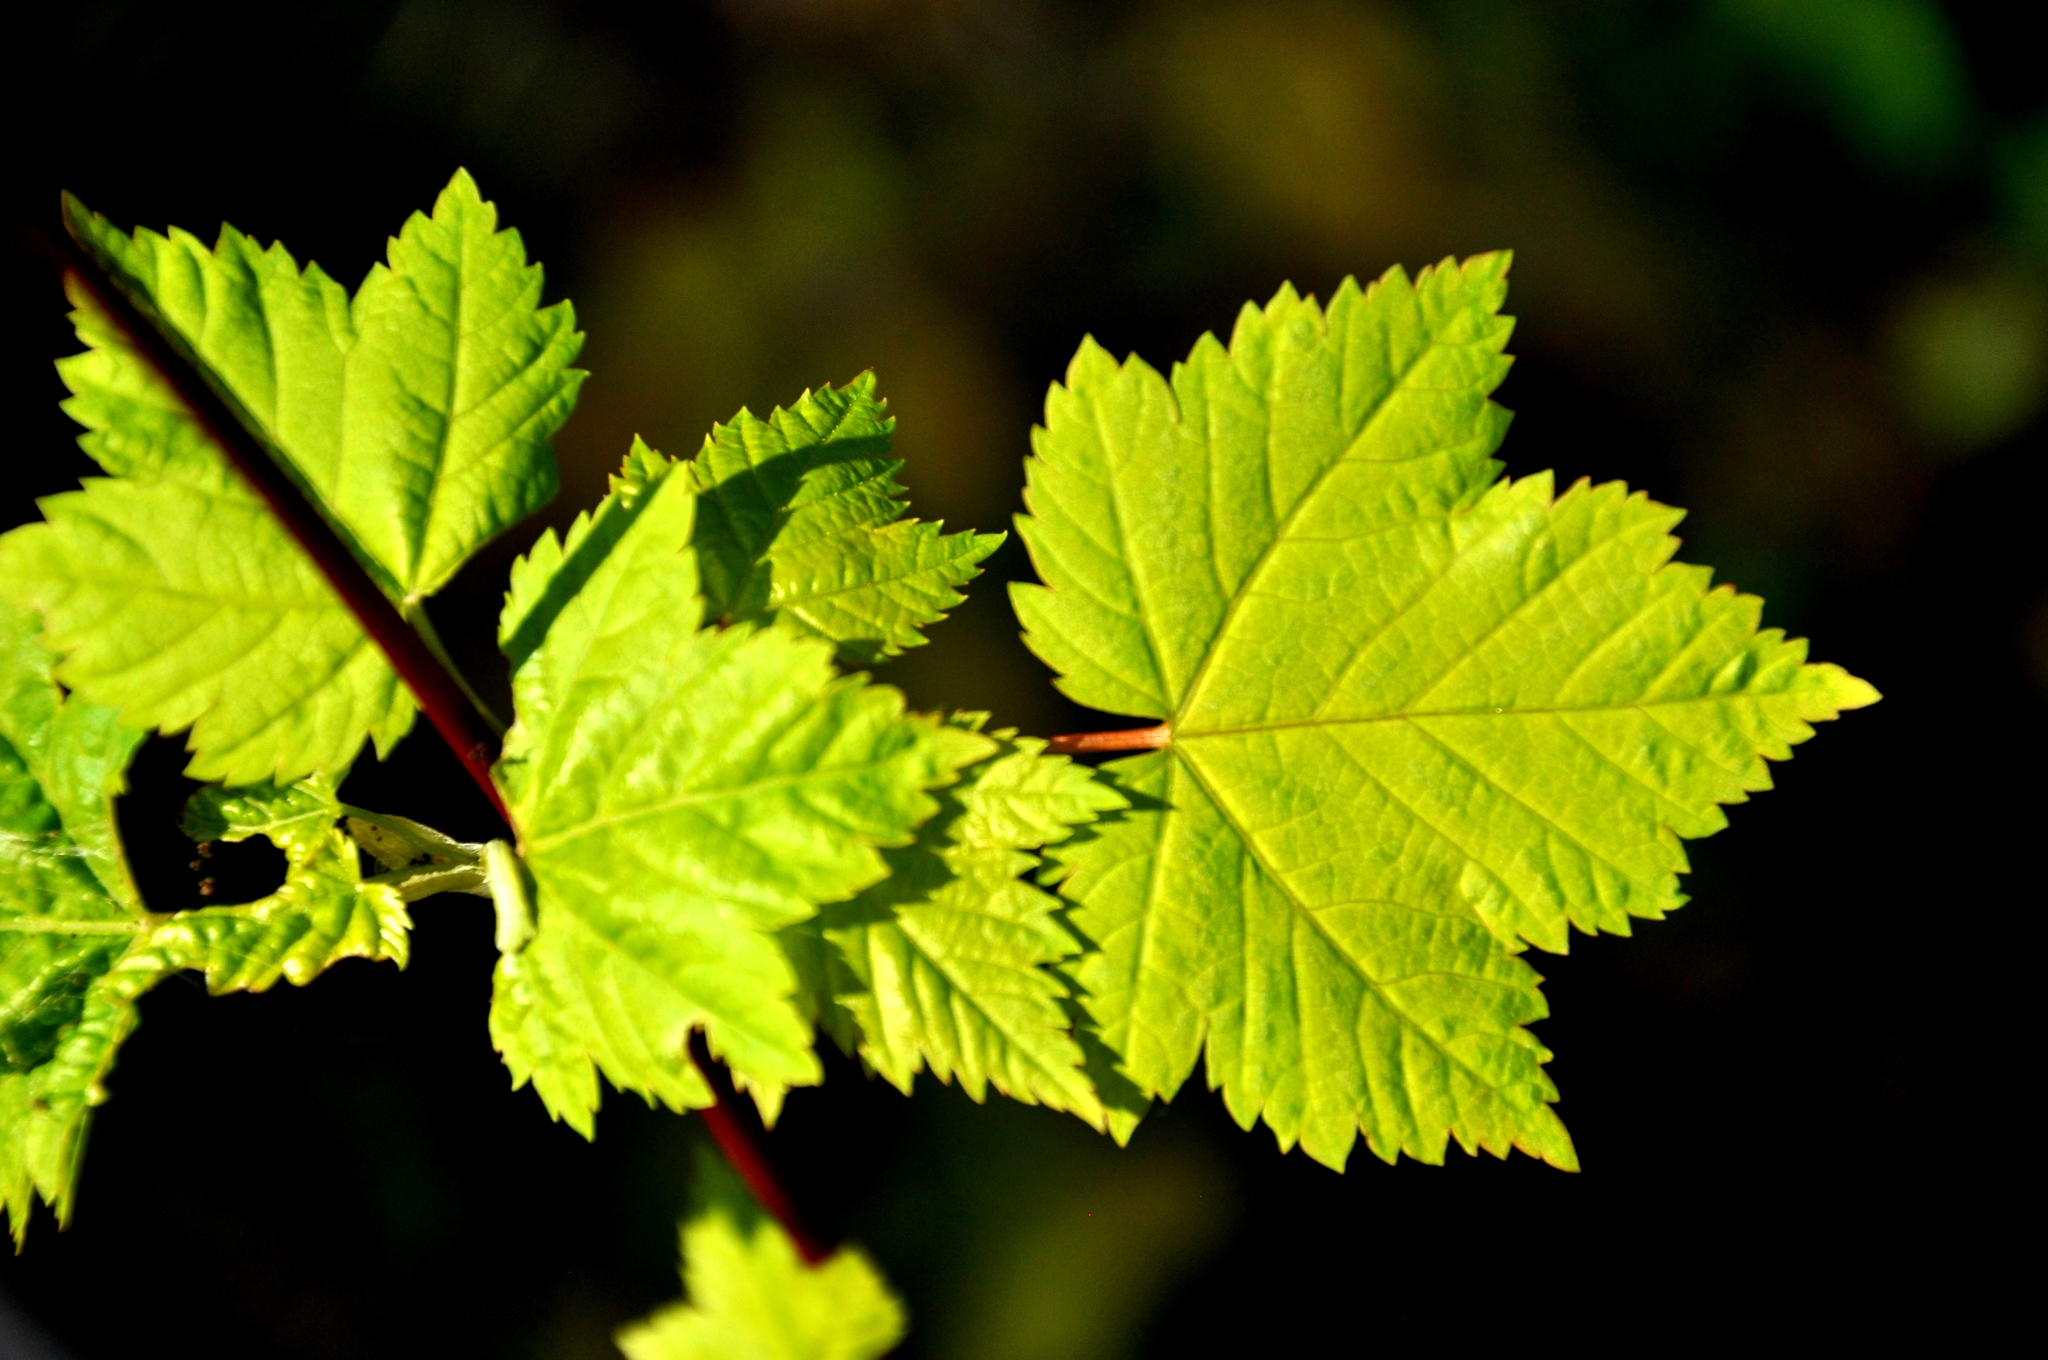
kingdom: Plantae
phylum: Tracheophyta
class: Magnoliopsida
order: Sapindales
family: Sapindaceae
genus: Acer
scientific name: Acer glabrum
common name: Rocky mountain maple
